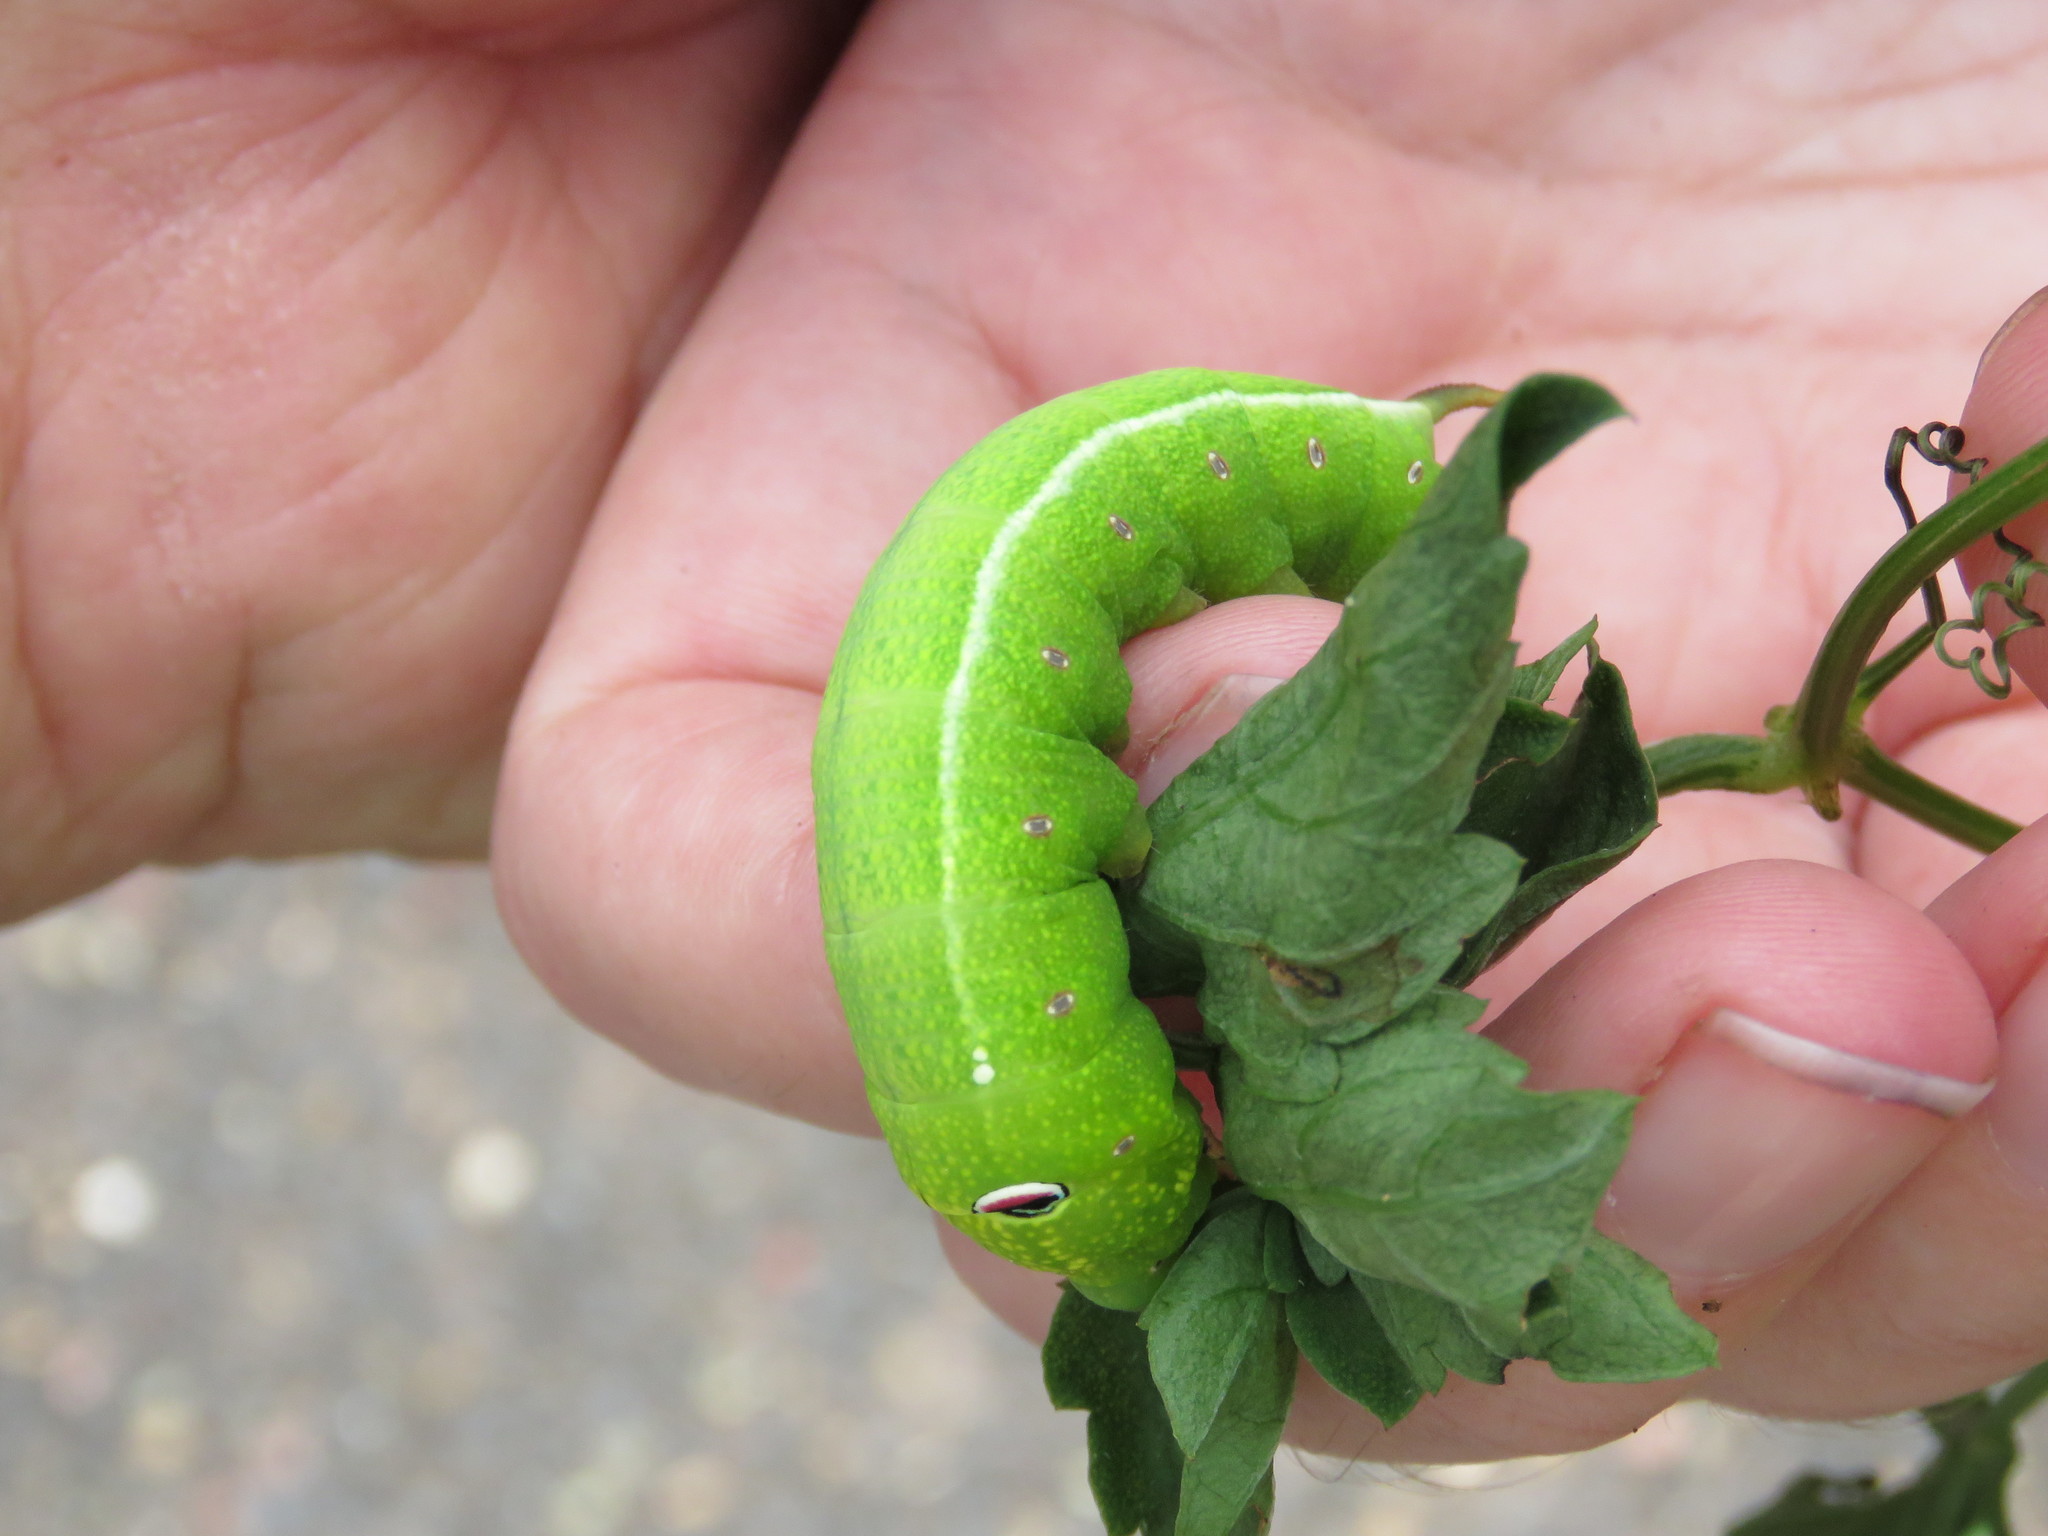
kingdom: Animalia
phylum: Arthropoda
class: Insecta
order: Lepidoptera
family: Sphingidae
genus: Theretra
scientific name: Theretra latreillii
